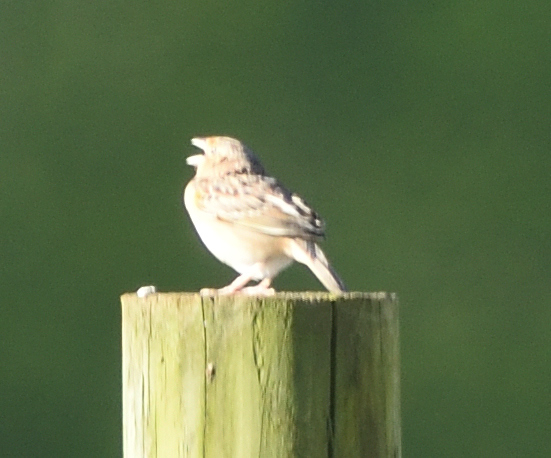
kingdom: Animalia
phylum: Chordata
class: Aves
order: Passeriformes
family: Passerellidae
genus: Ammodramus
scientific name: Ammodramus savannarum
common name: Grasshopper sparrow
